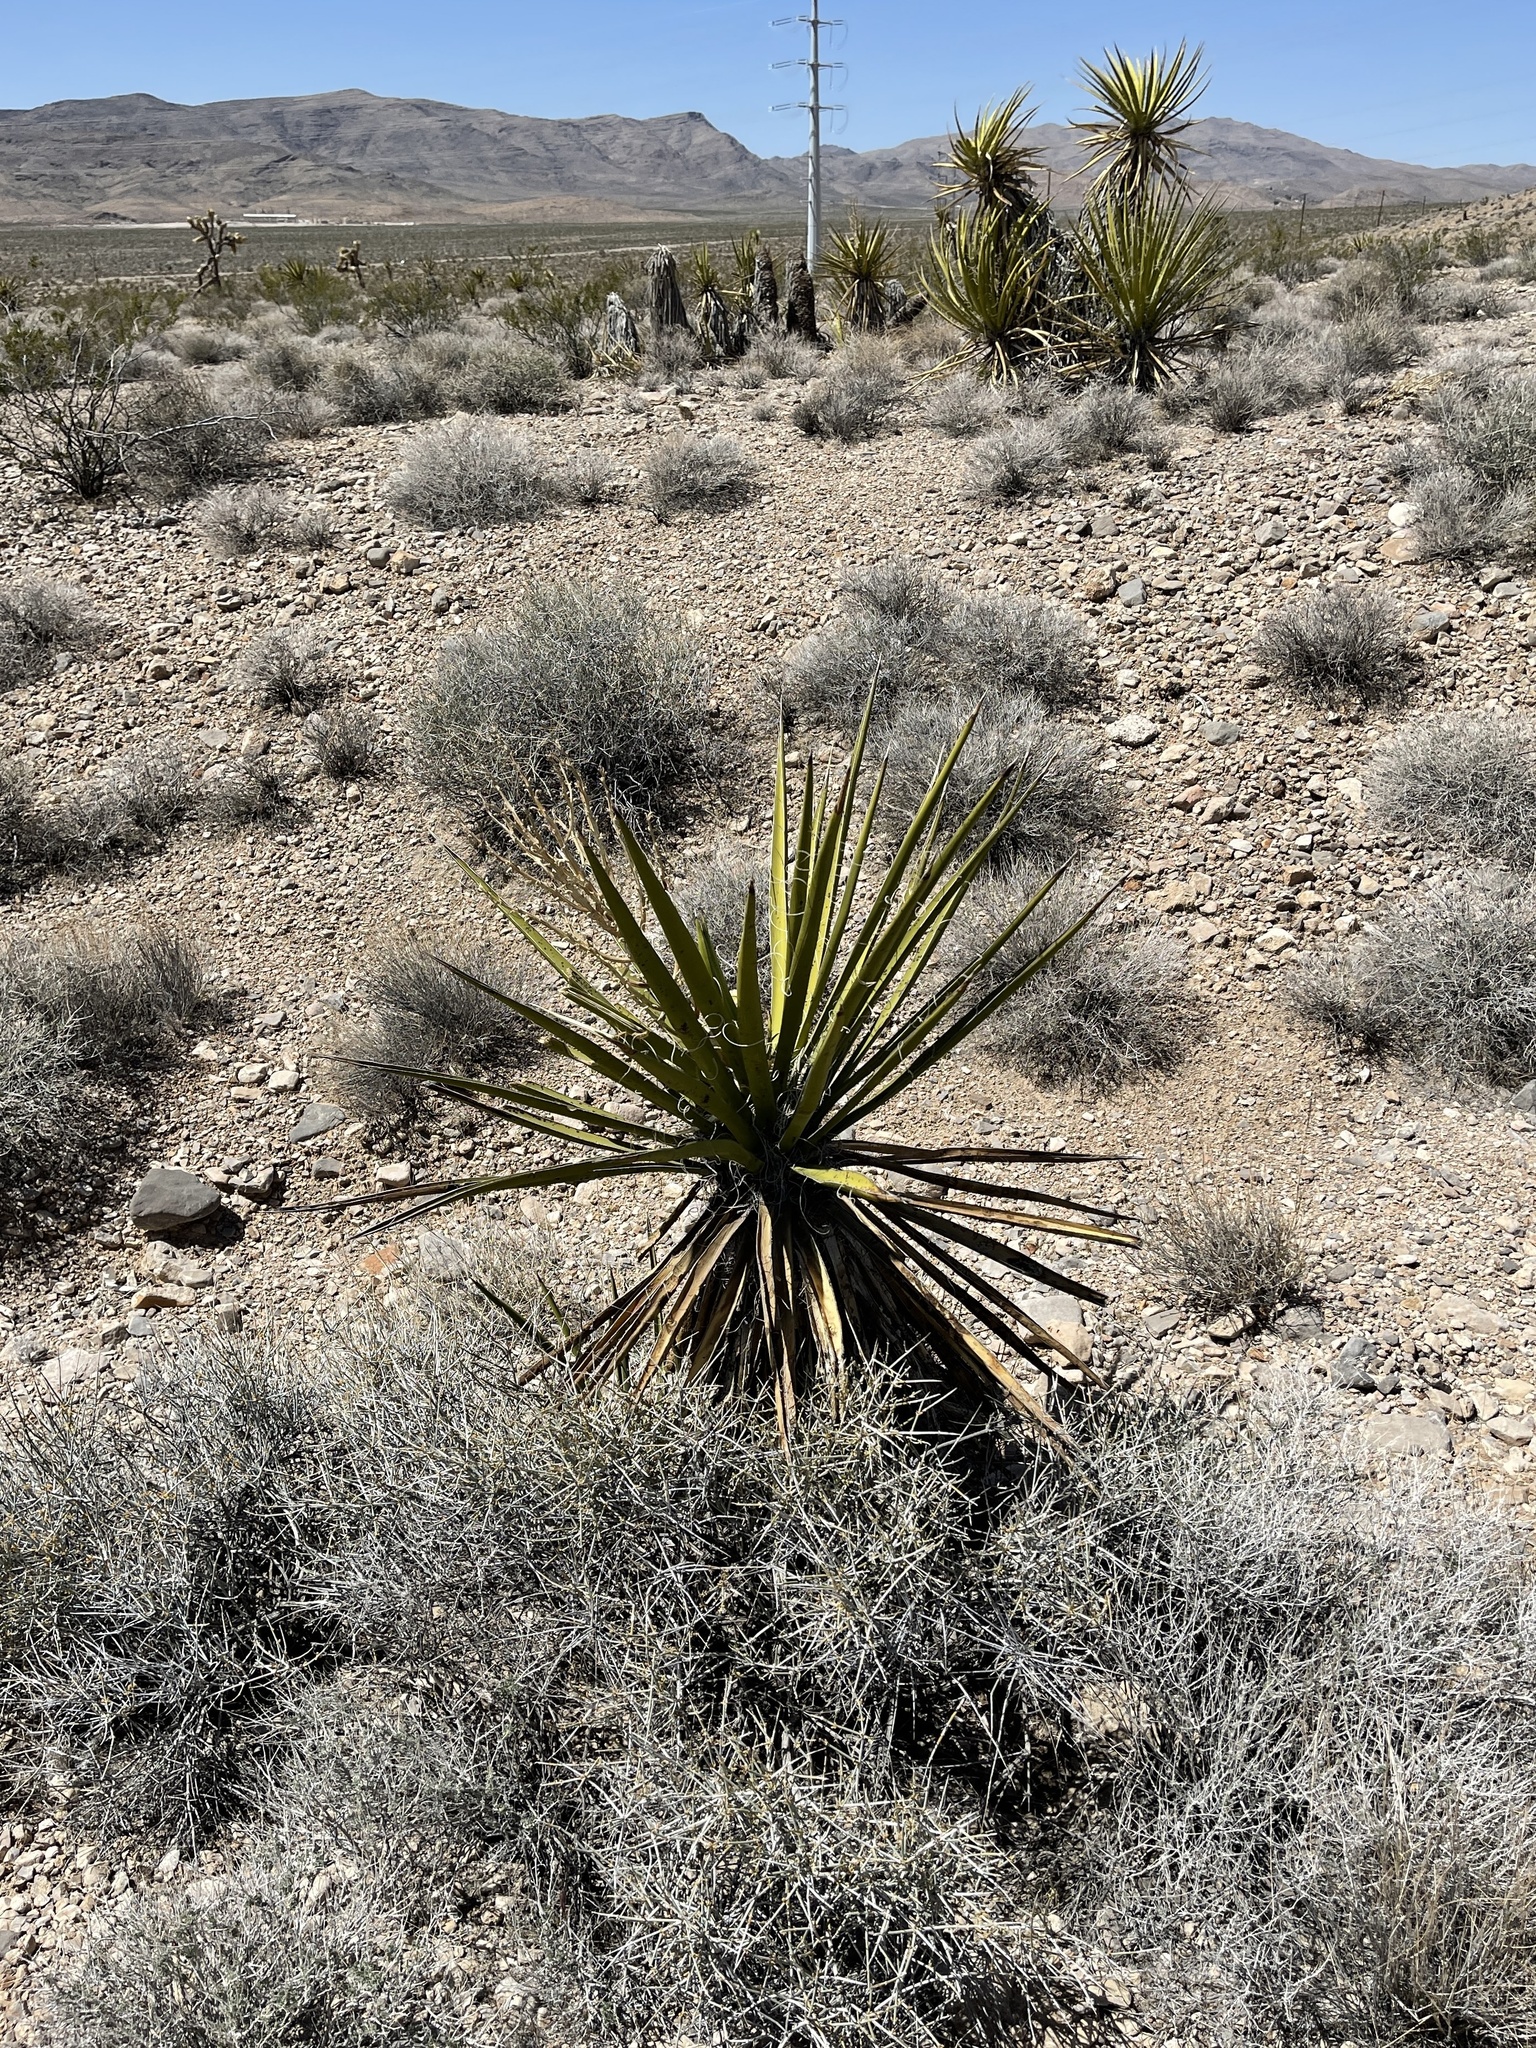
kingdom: Plantae
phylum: Tracheophyta
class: Liliopsida
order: Asparagales
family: Asparagaceae
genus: Yucca
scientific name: Yucca schidigera
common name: Mojave yucca
